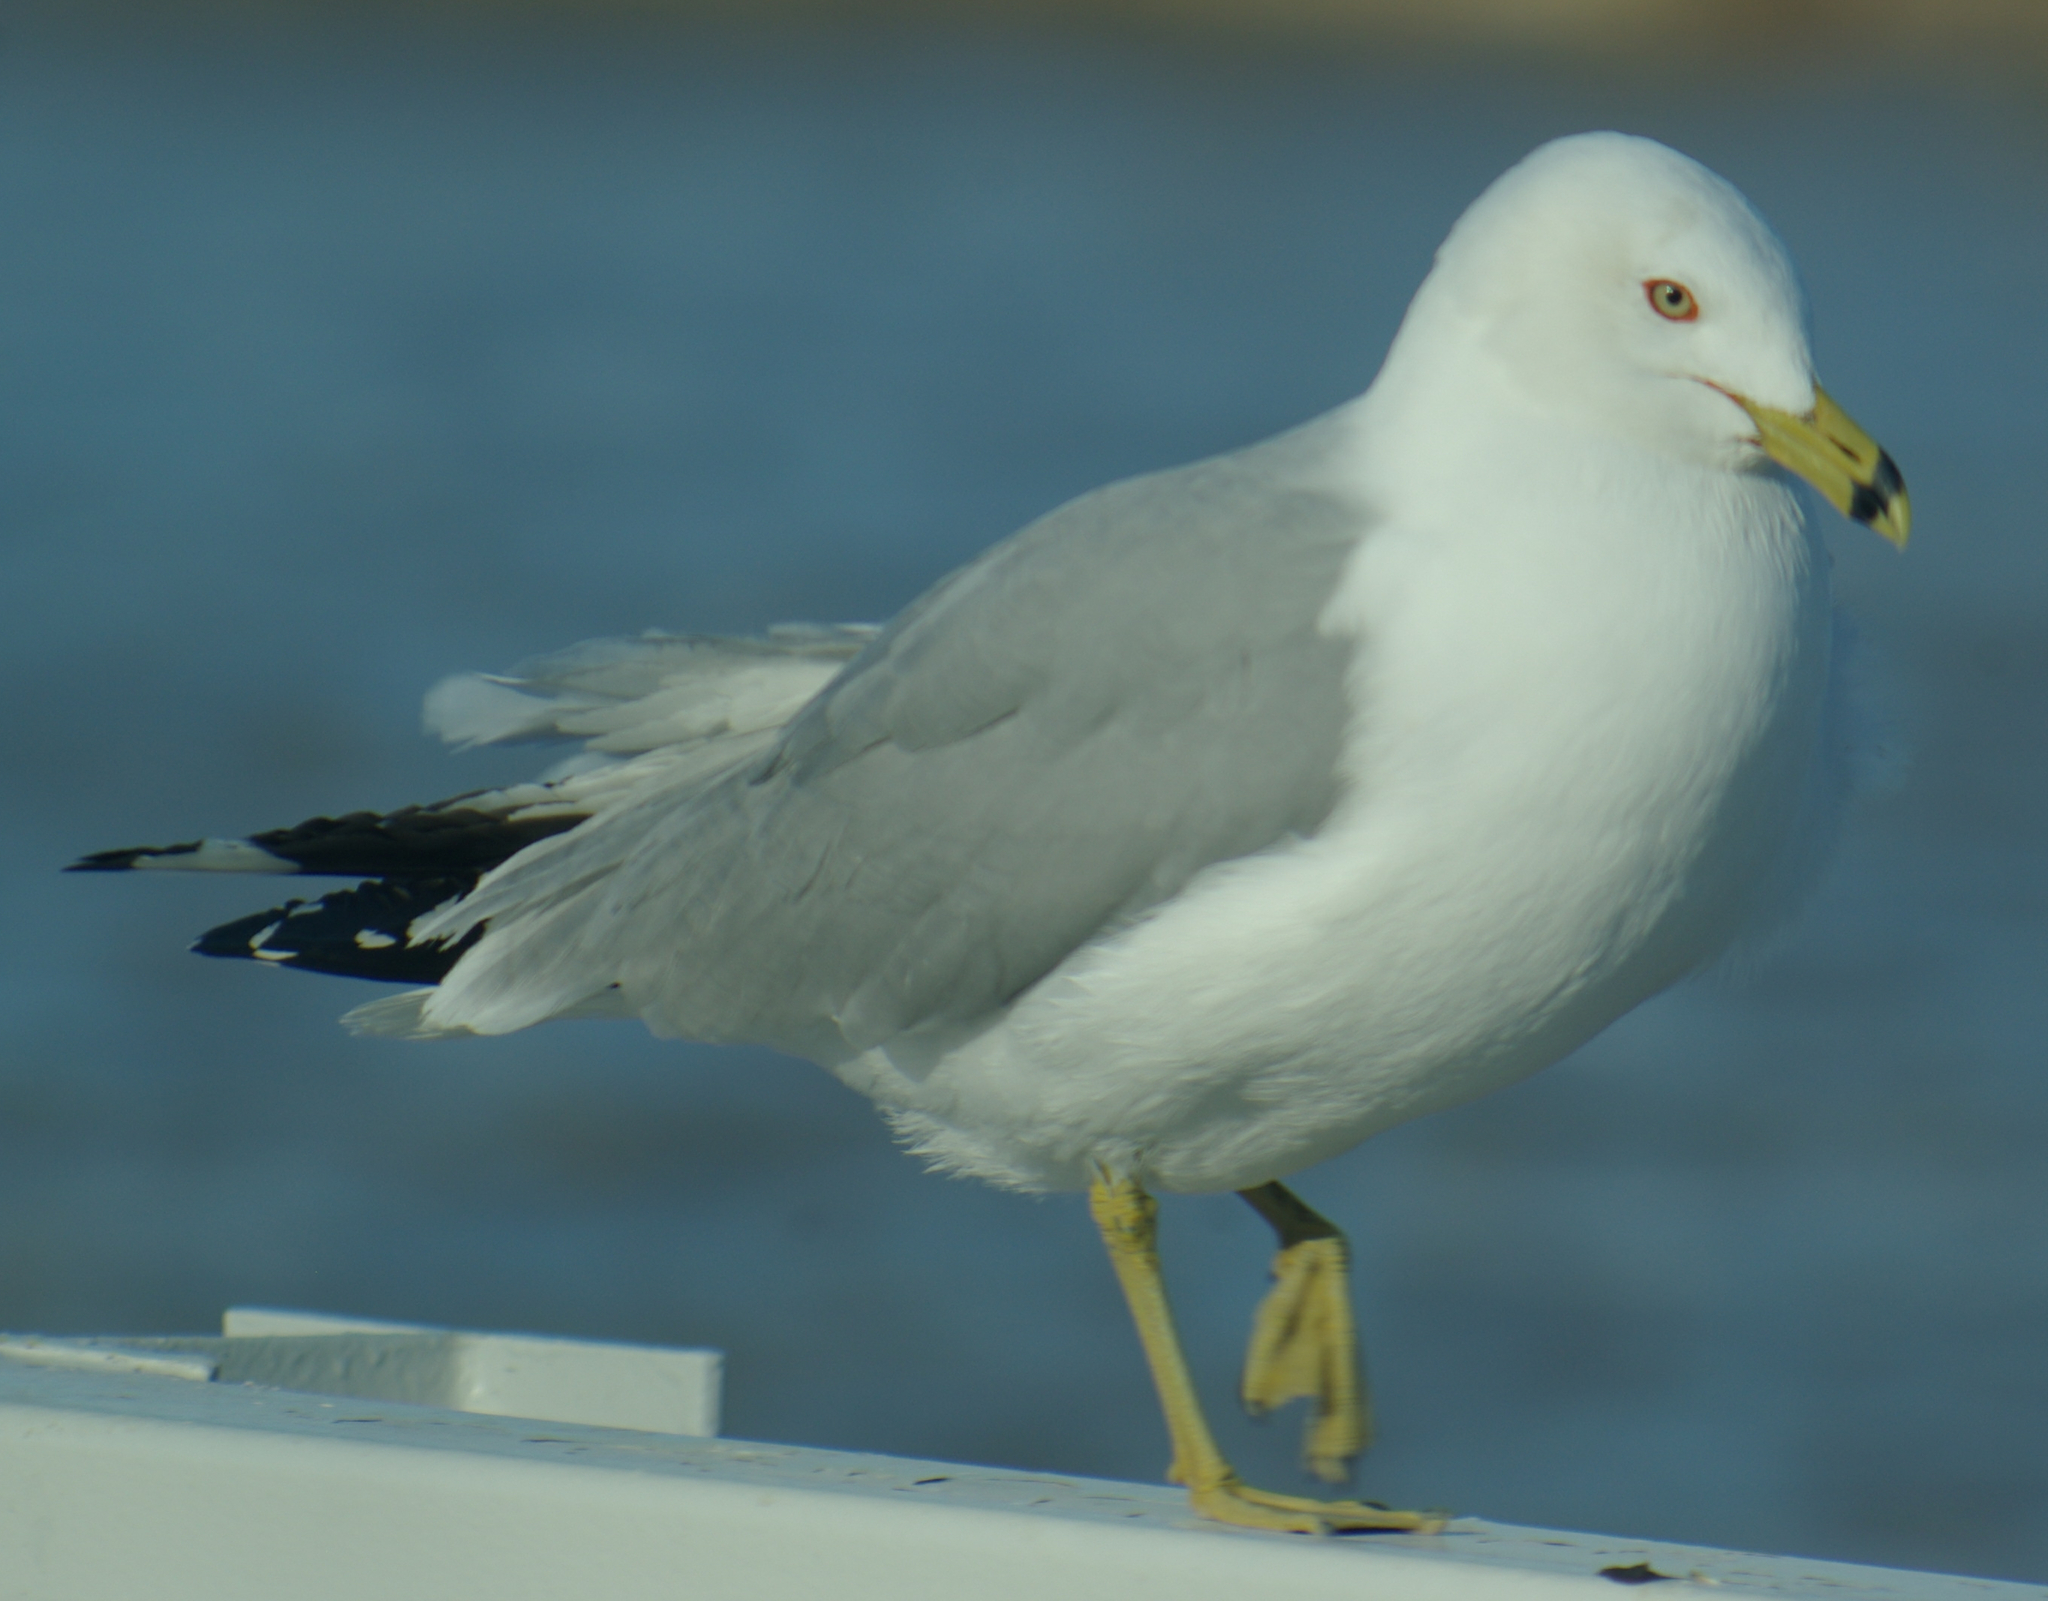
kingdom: Animalia
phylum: Chordata
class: Aves
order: Charadriiformes
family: Laridae
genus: Larus
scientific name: Larus delawarensis
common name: Ring-billed gull
